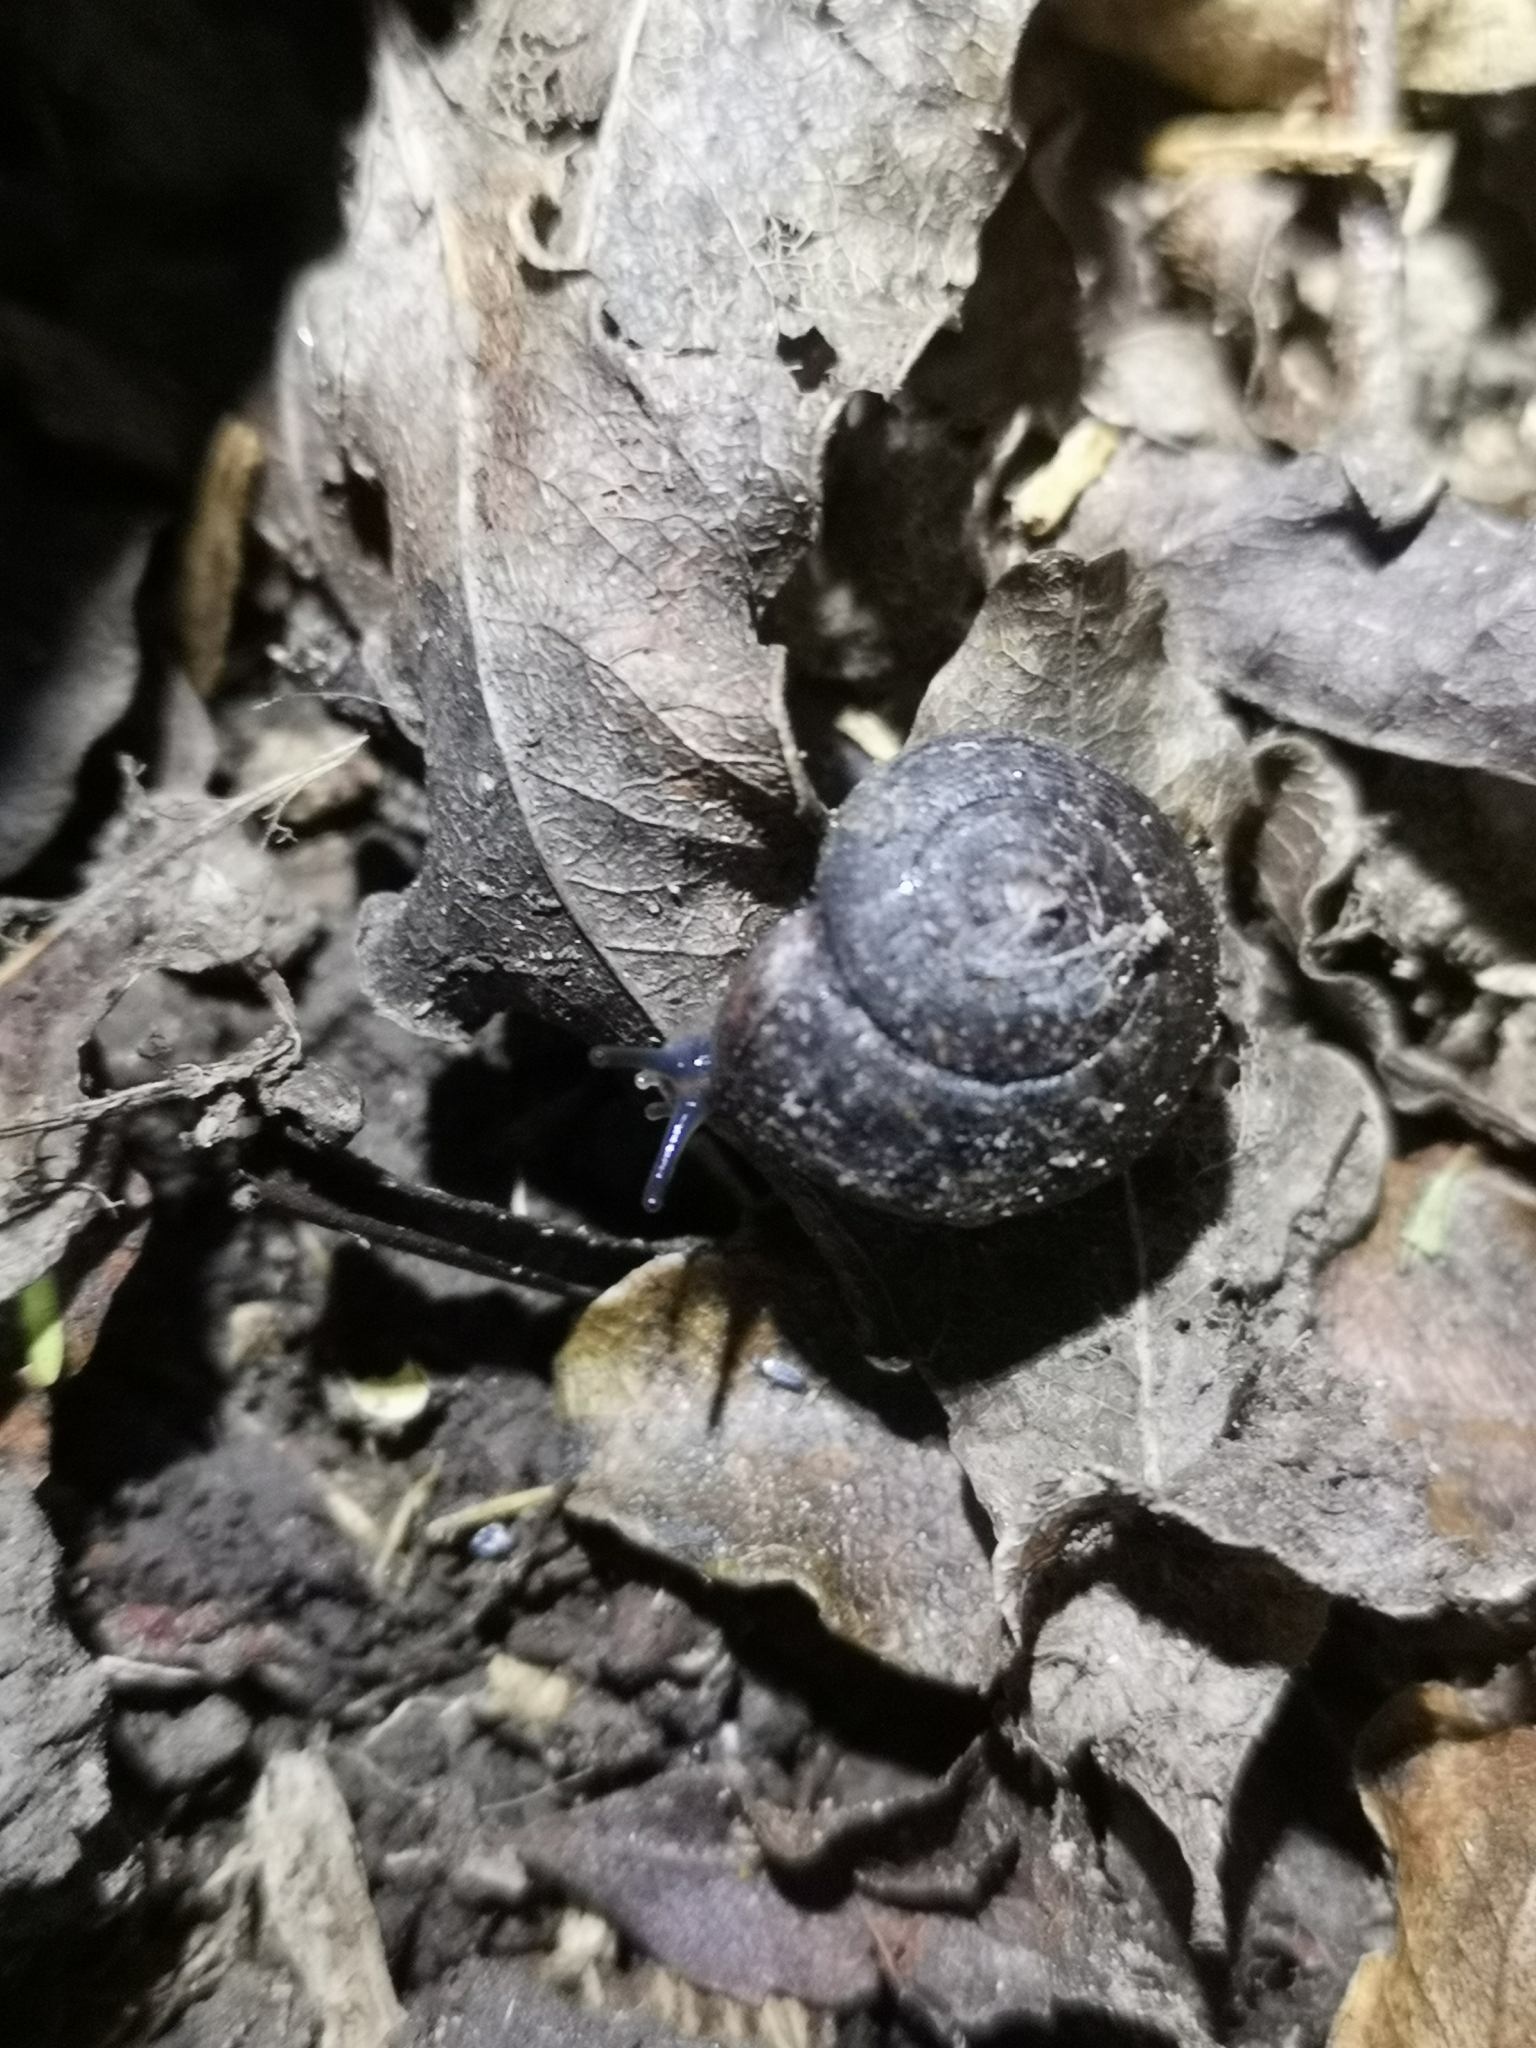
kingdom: Animalia
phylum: Mollusca
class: Gastropoda
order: Stylommatophora
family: Charopidae
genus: Thalassohelix
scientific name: Thalassohelix igniflua
